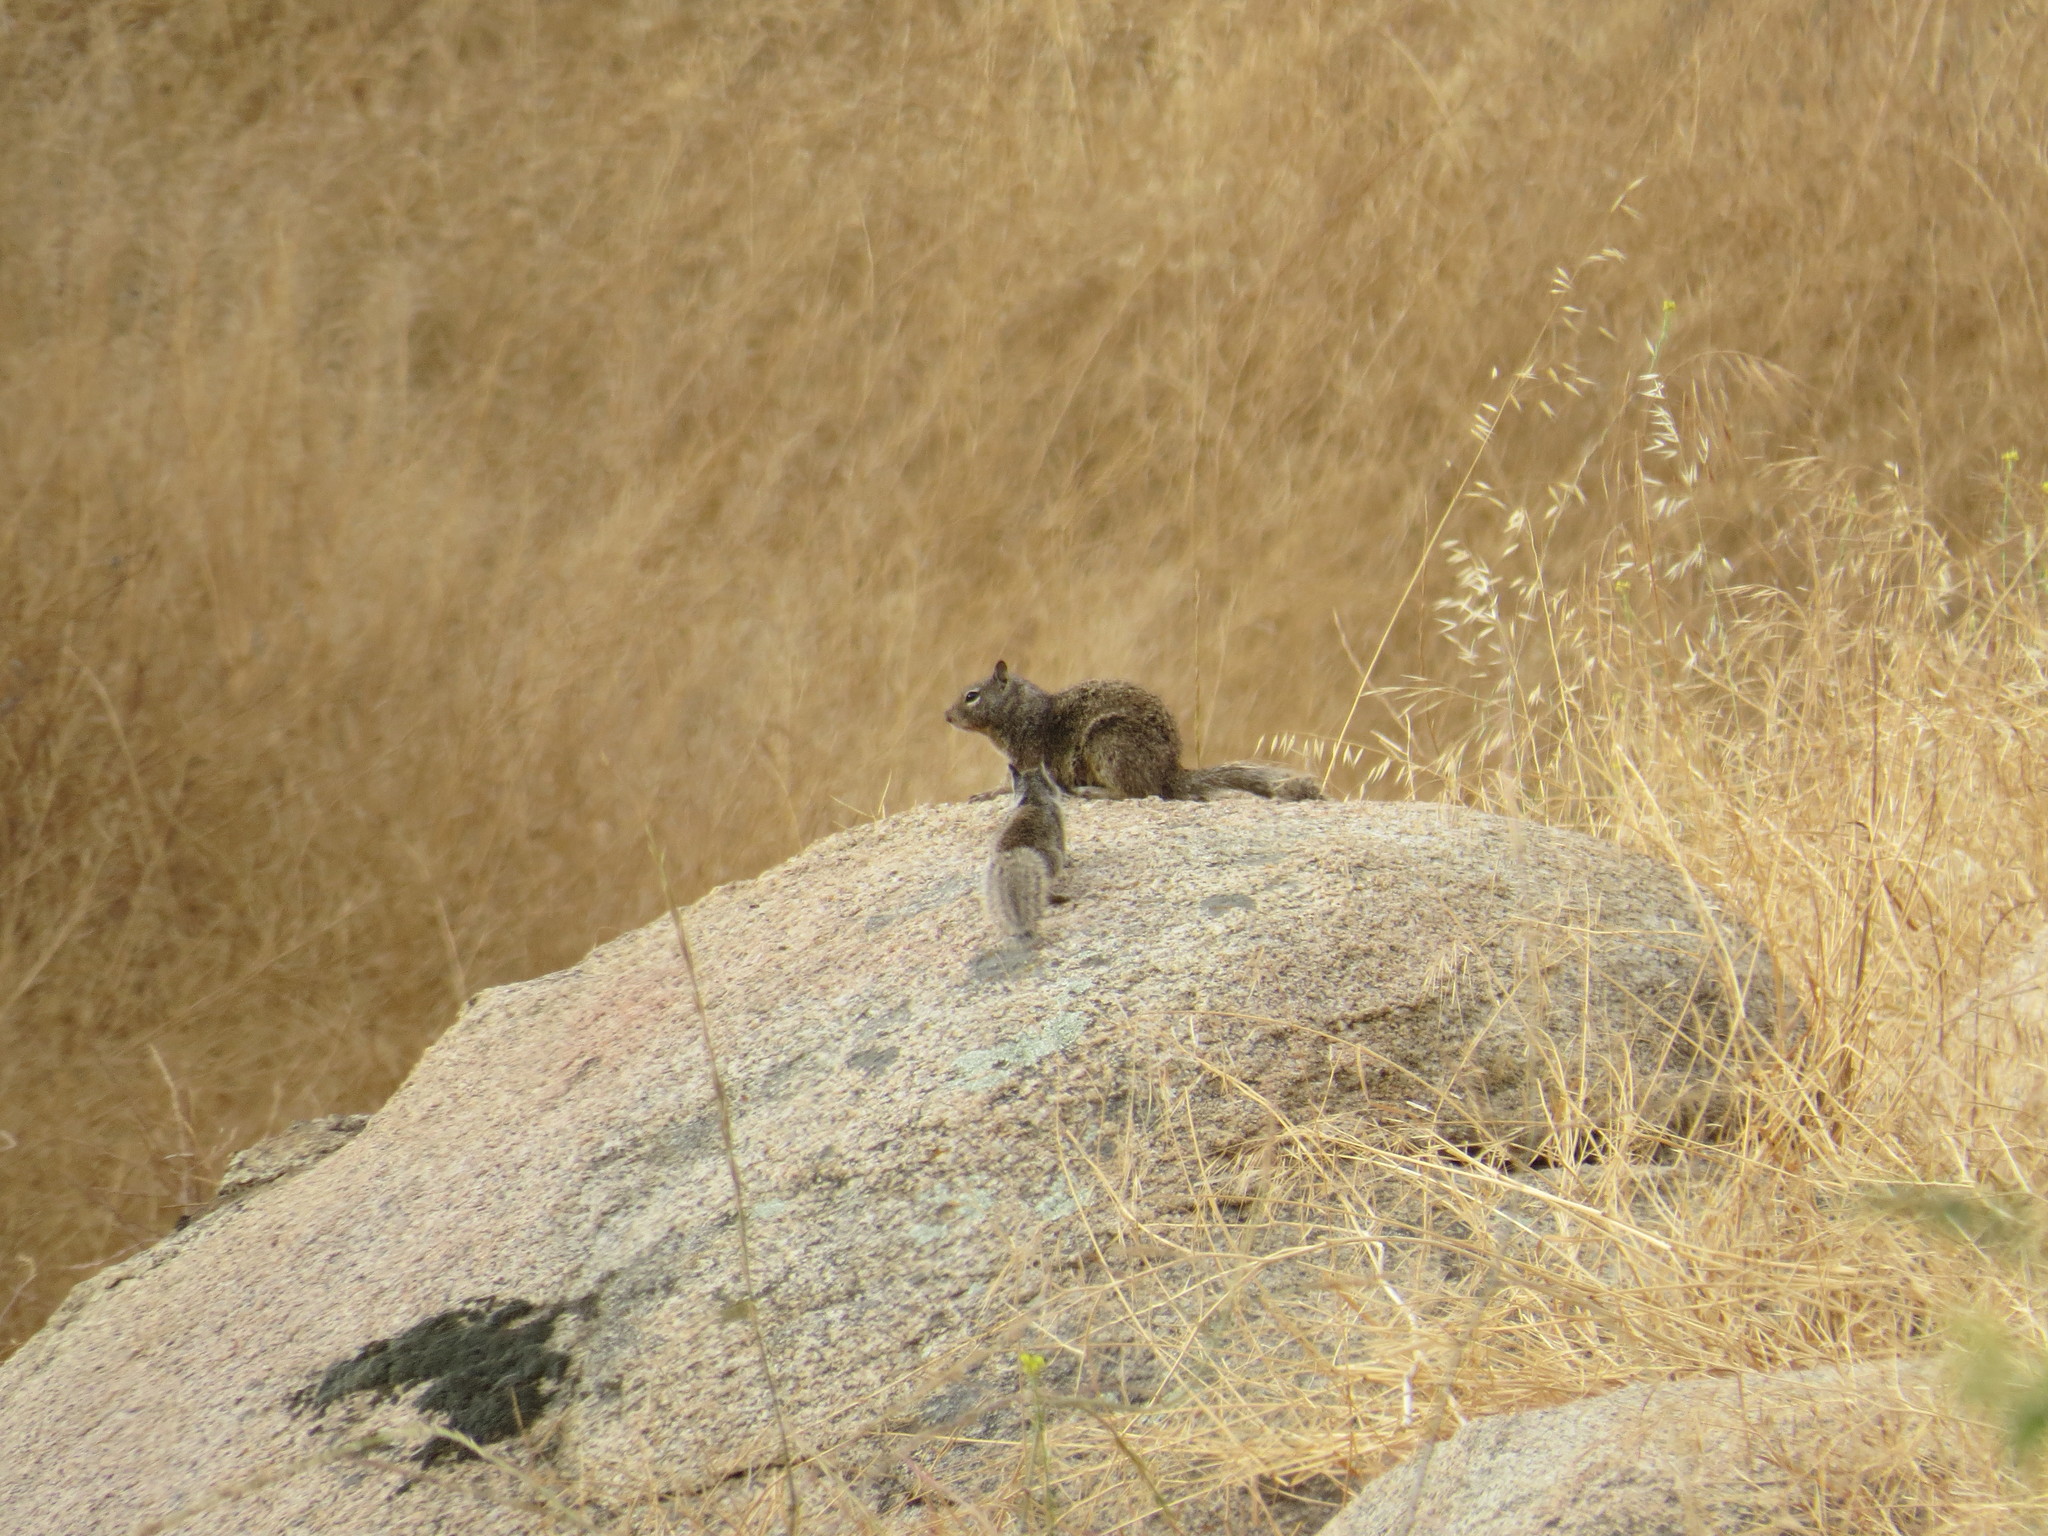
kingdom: Animalia
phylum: Chordata
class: Mammalia
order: Rodentia
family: Sciuridae
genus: Otospermophilus
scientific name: Otospermophilus beecheyi
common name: California ground squirrel
